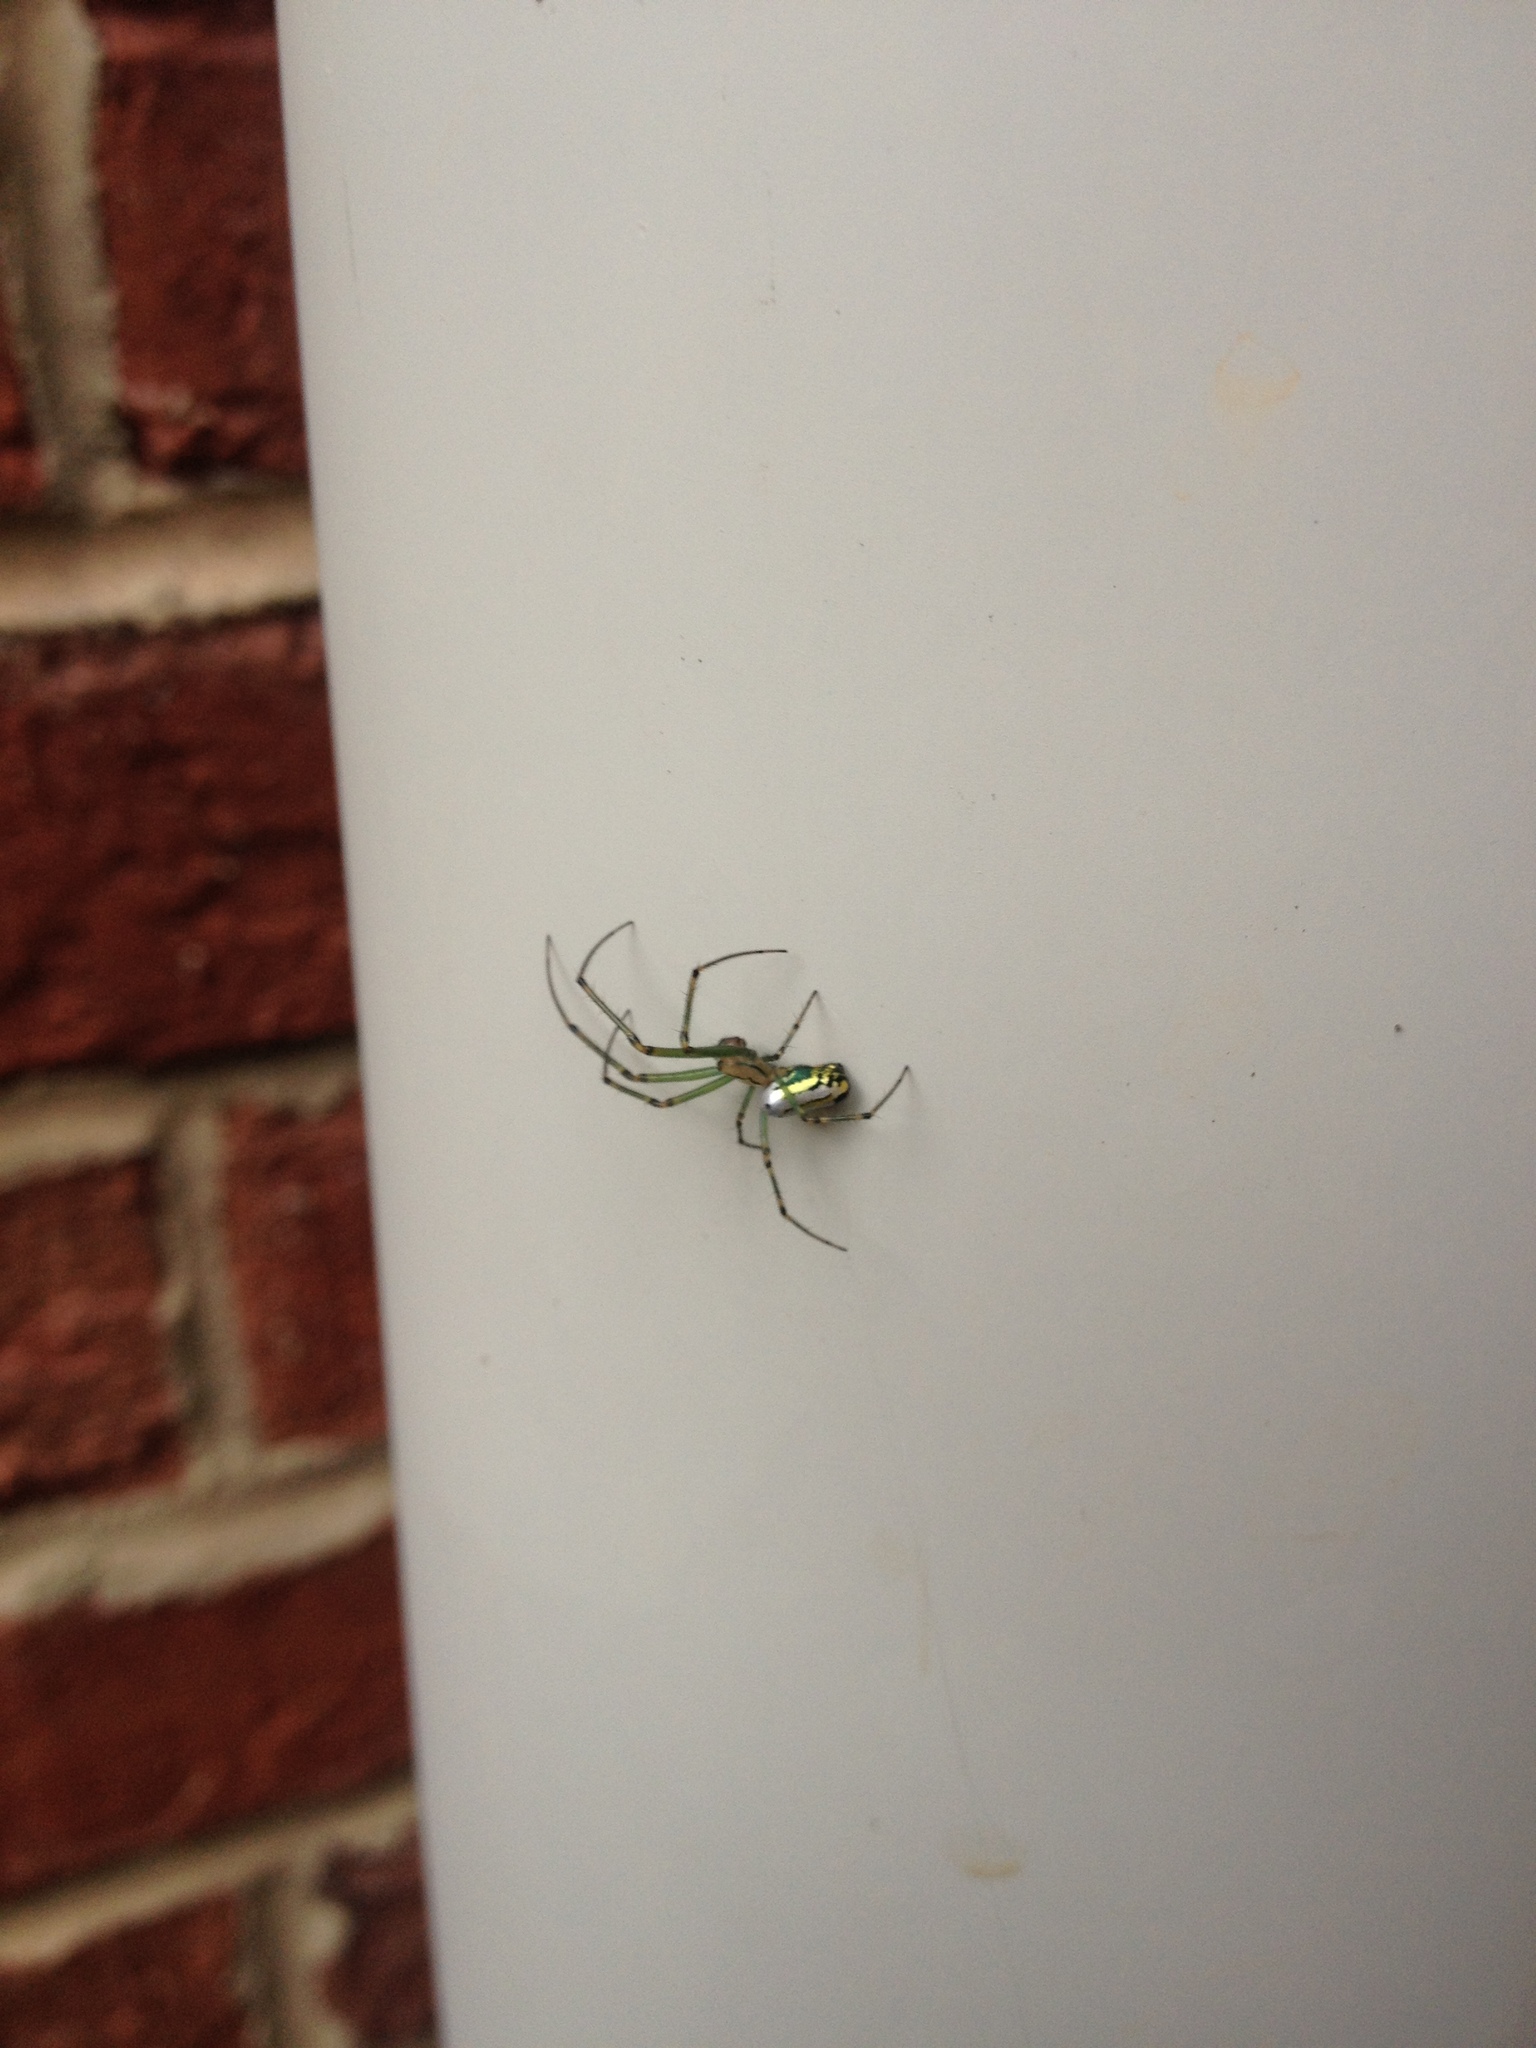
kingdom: Animalia
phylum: Arthropoda
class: Arachnida
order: Araneae
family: Tetragnathidae
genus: Leucauge
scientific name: Leucauge venusta
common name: Longjawed orb weavers
